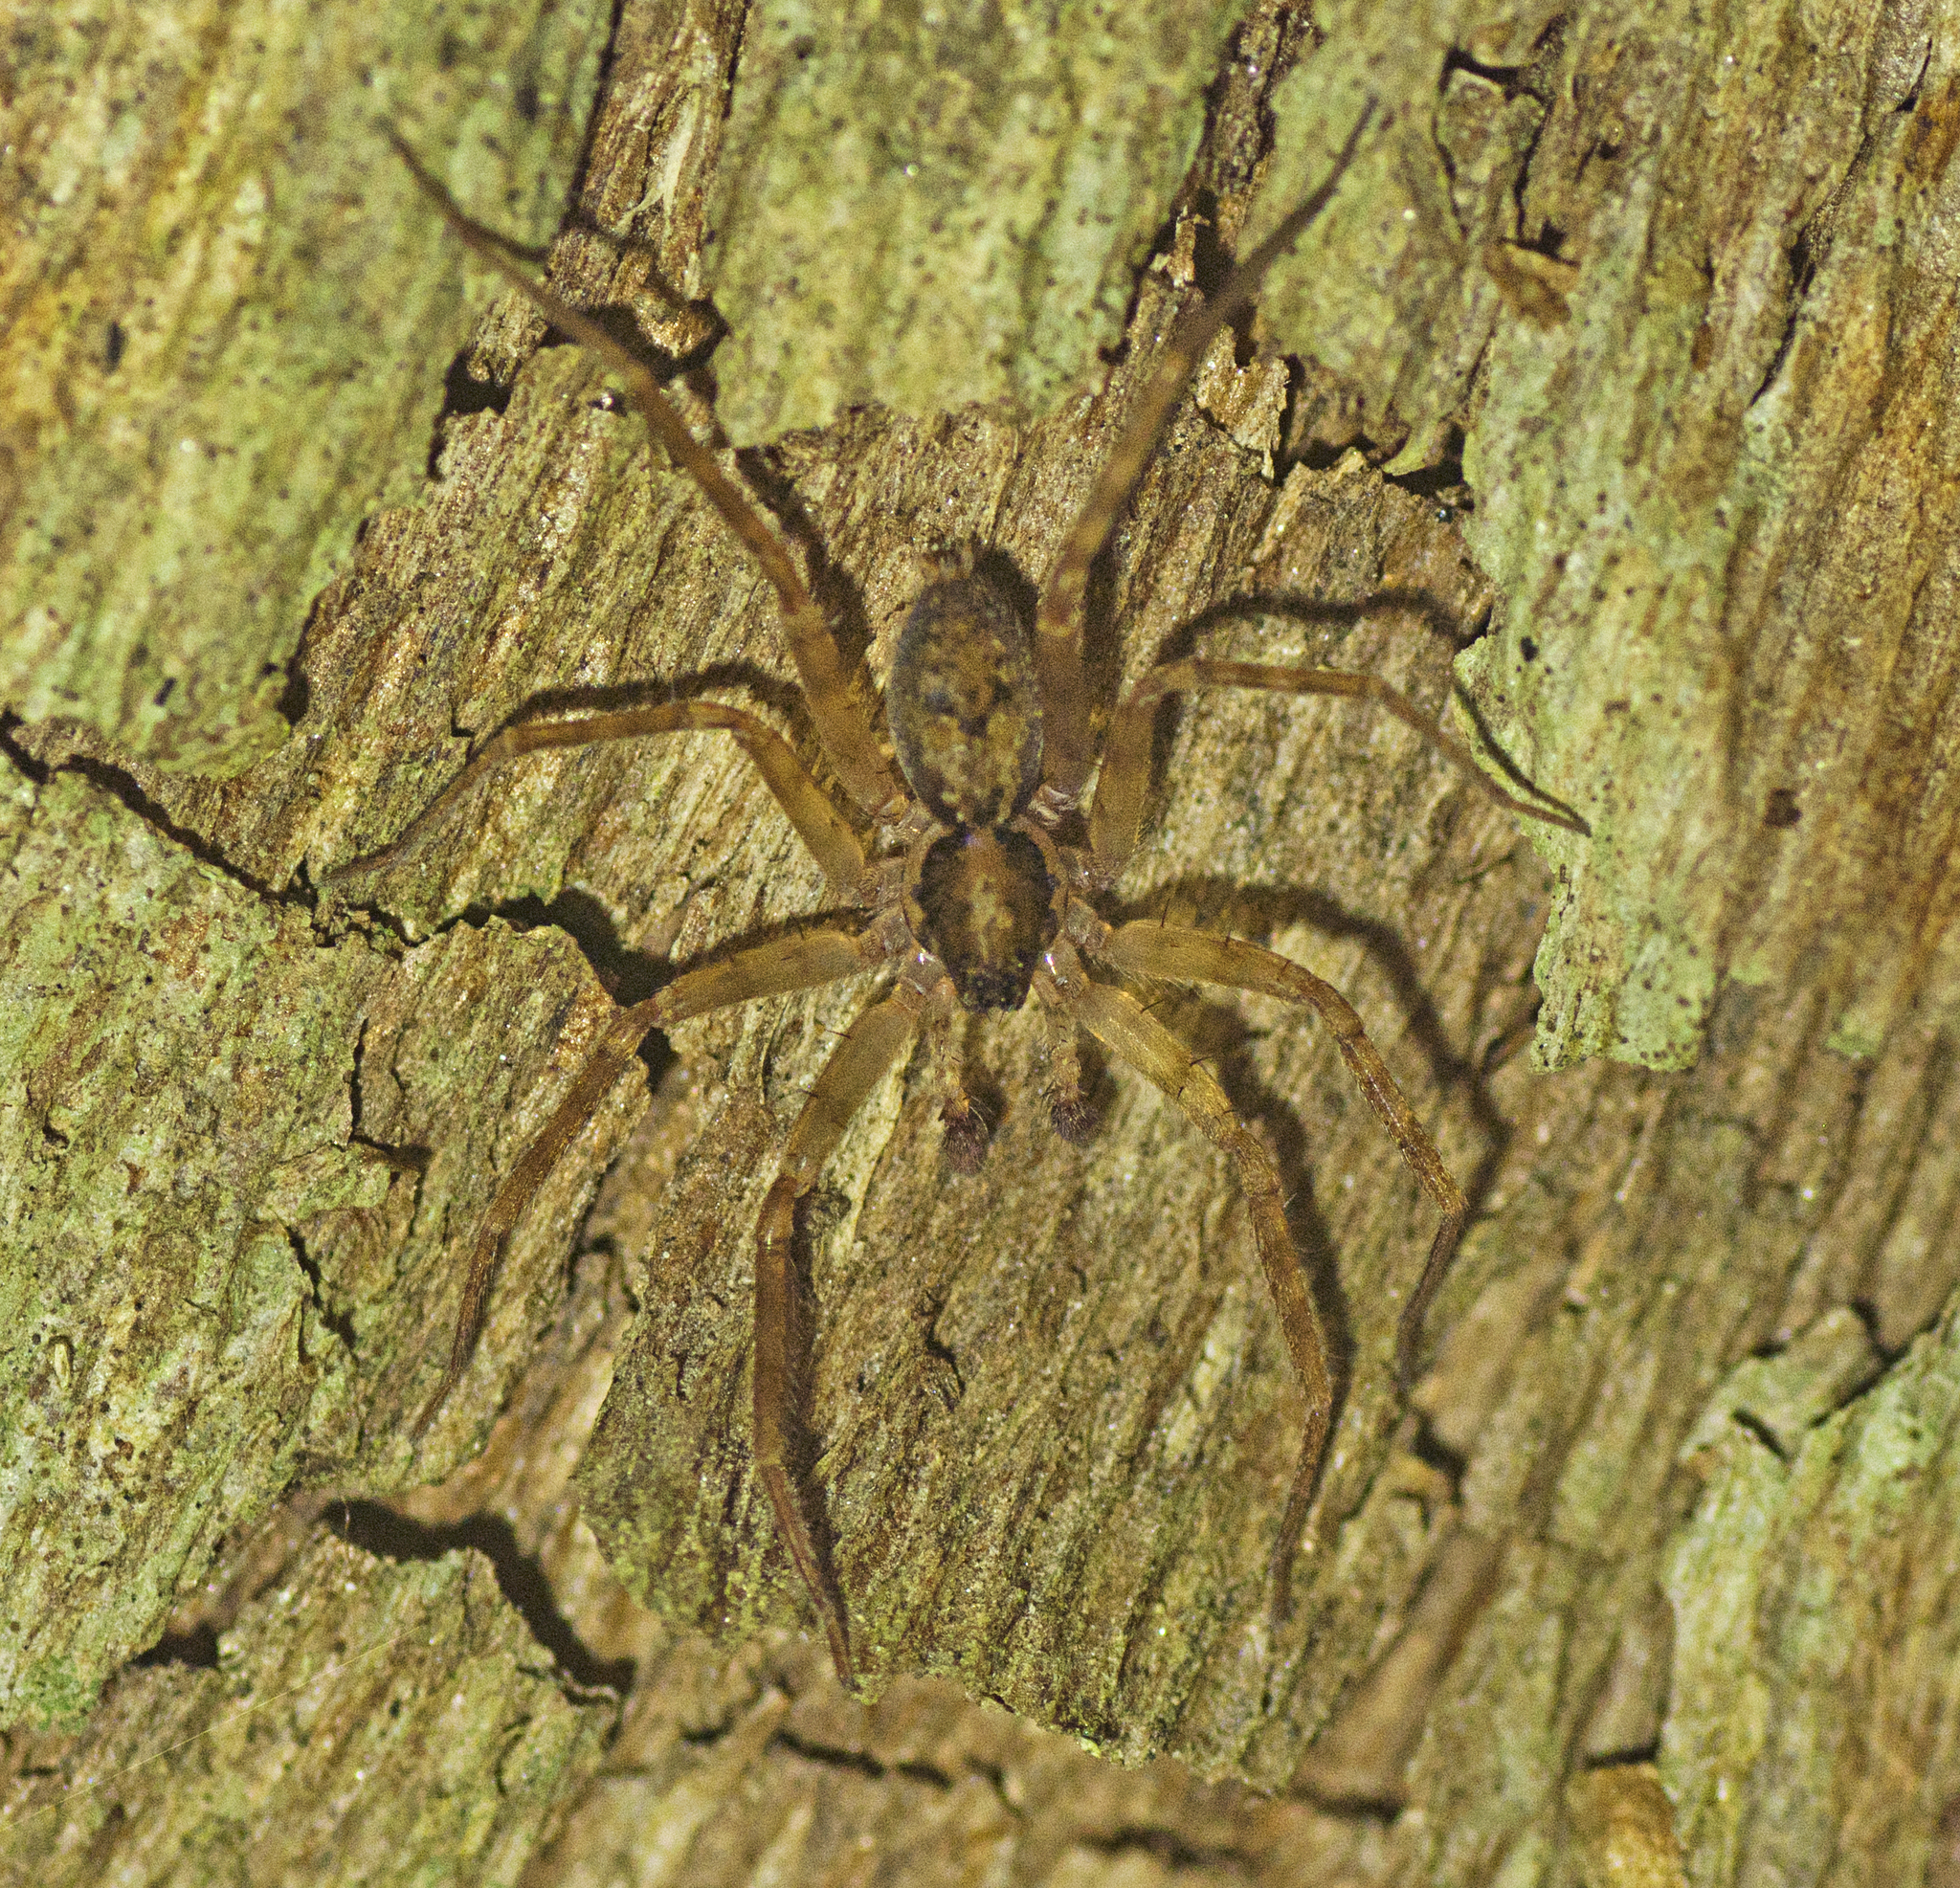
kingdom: Animalia
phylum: Arthropoda
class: Arachnida
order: Araneae
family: Toxopidae
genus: Toxopsoides
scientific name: Toxopsoides erici
